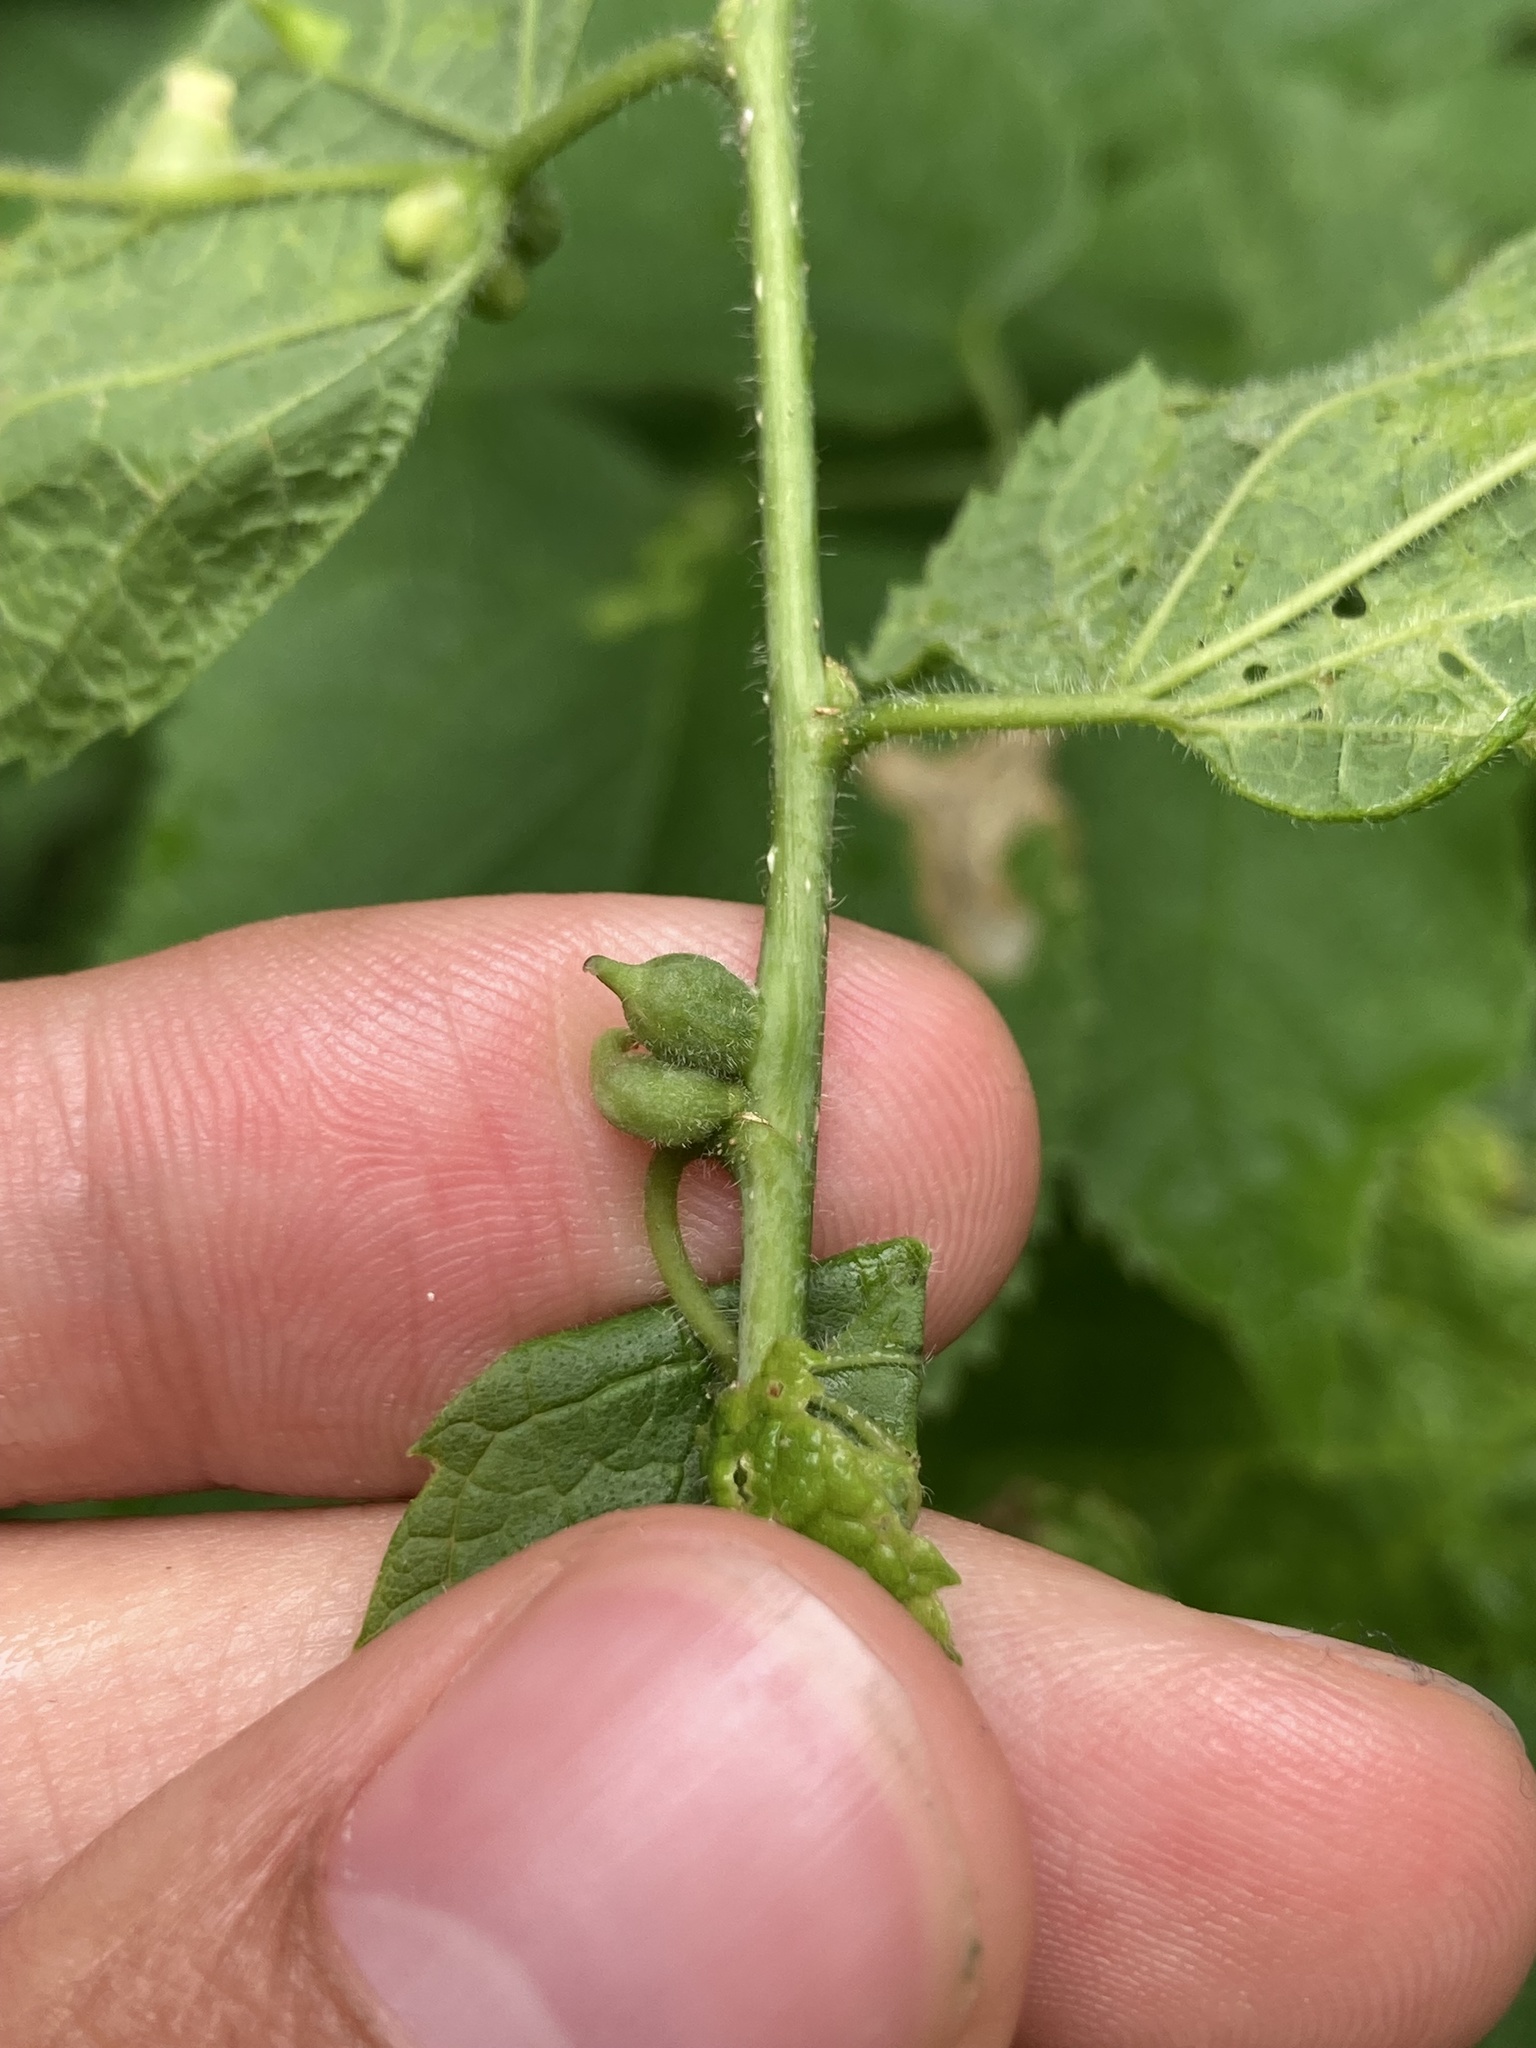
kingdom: Animalia
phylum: Arthropoda
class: Insecta
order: Diptera
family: Cecidomyiidae
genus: Celticecis
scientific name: Celticecis ovata
